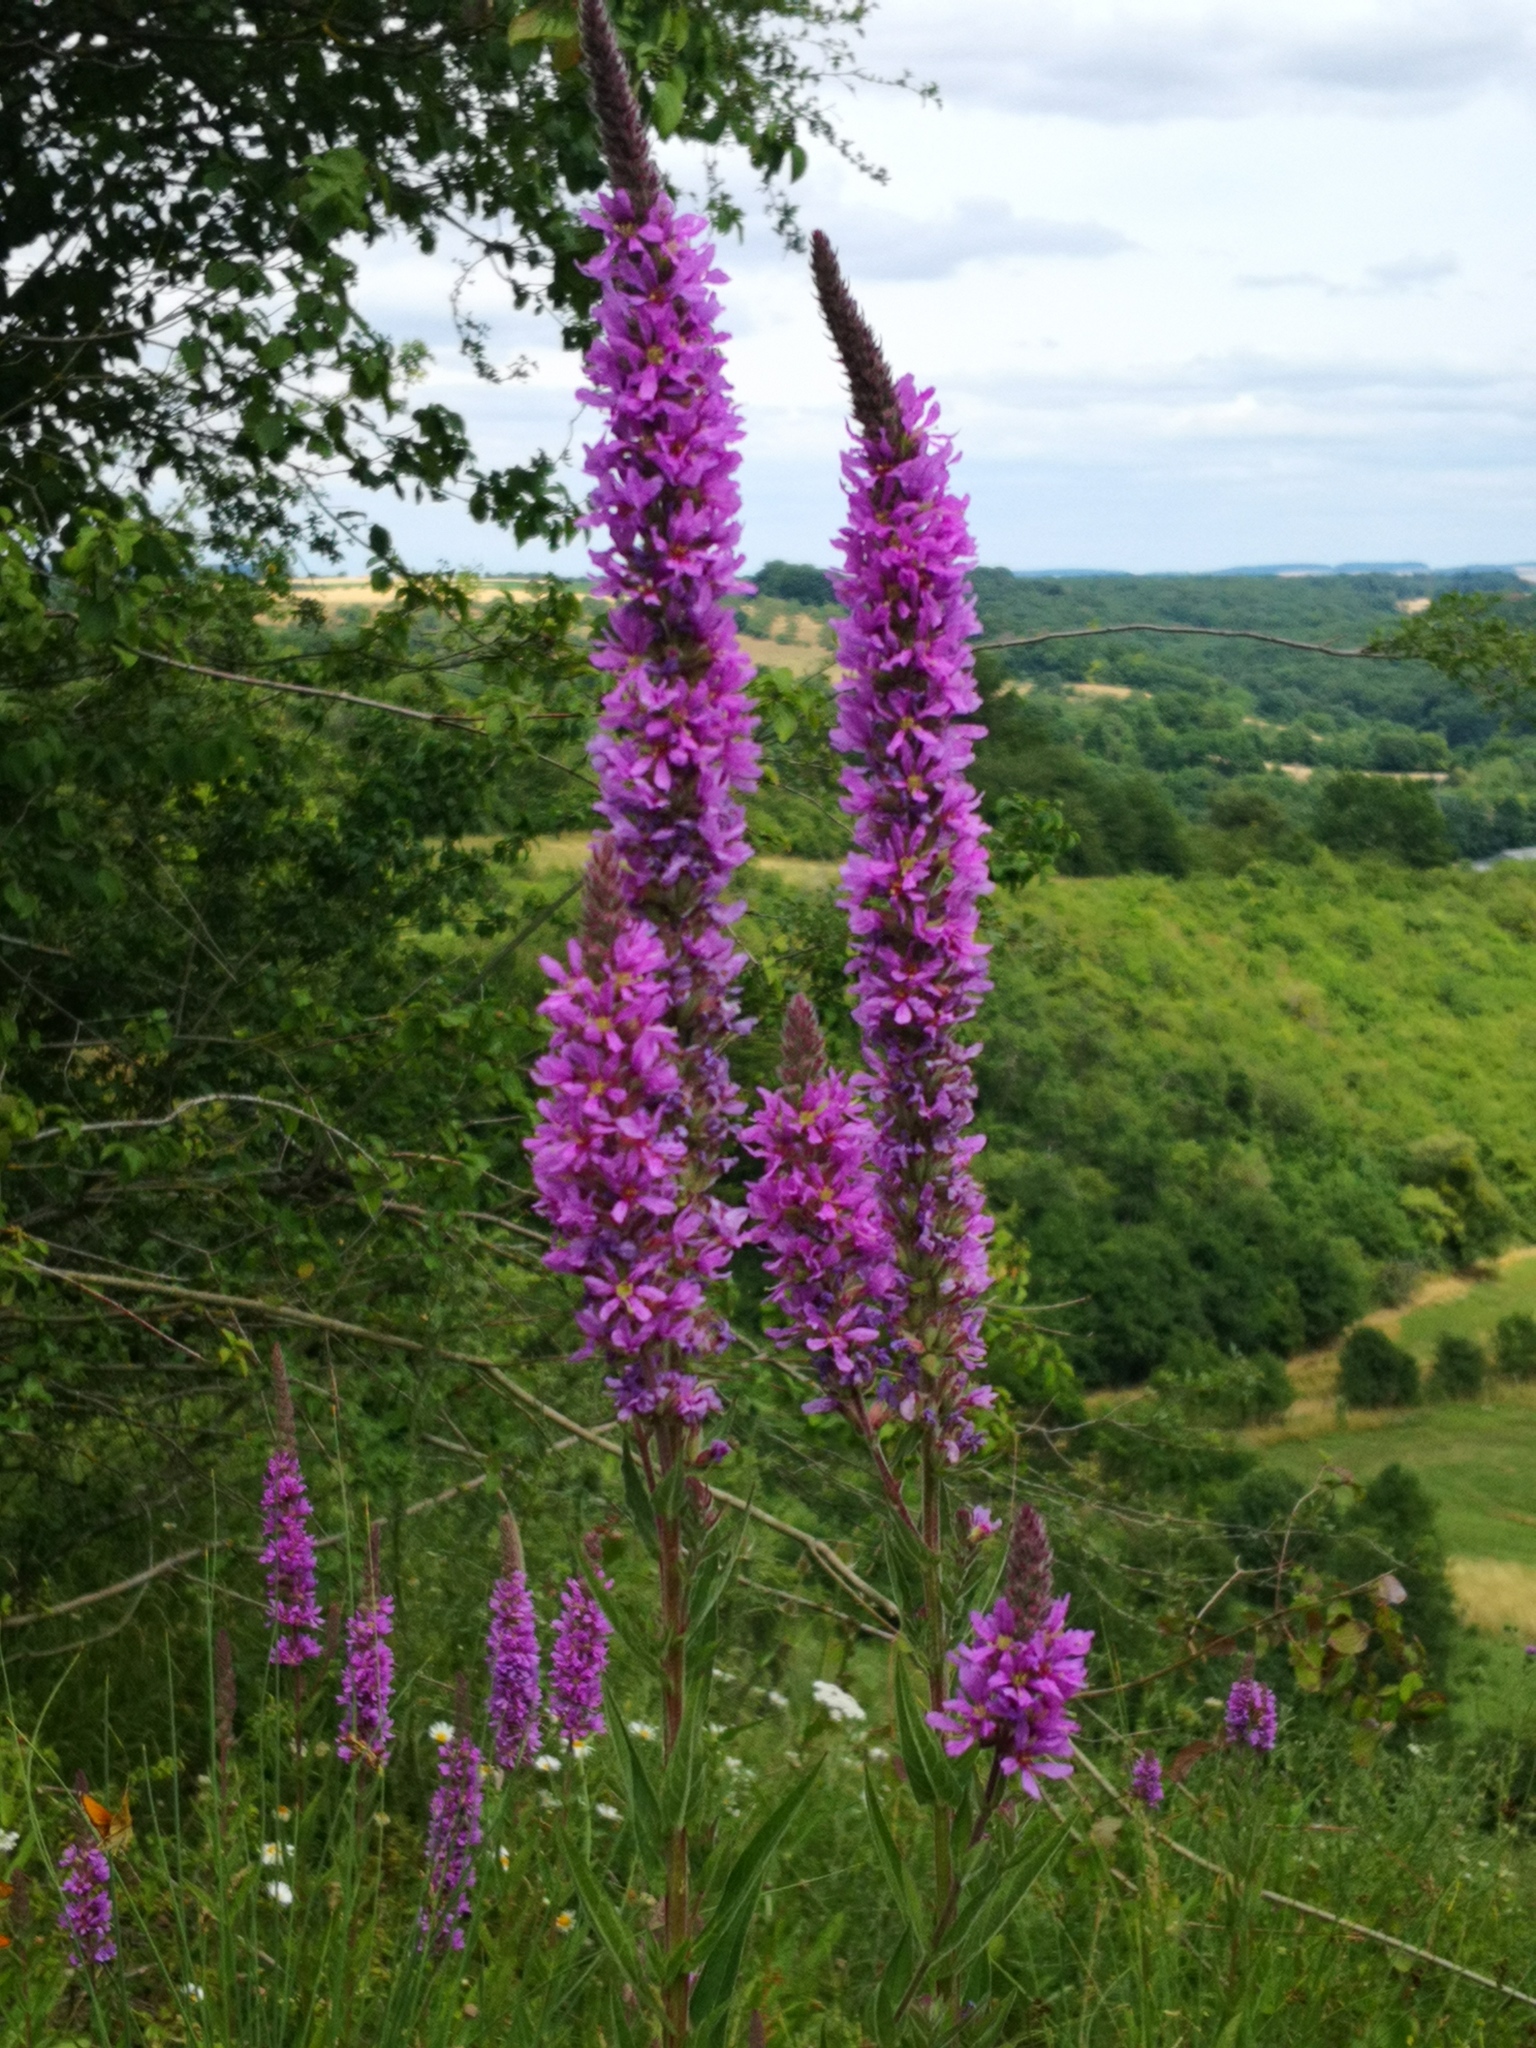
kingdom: Plantae
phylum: Tracheophyta
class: Magnoliopsida
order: Myrtales
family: Lythraceae
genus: Lythrum
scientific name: Lythrum salicaria
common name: Purple loosestrife
